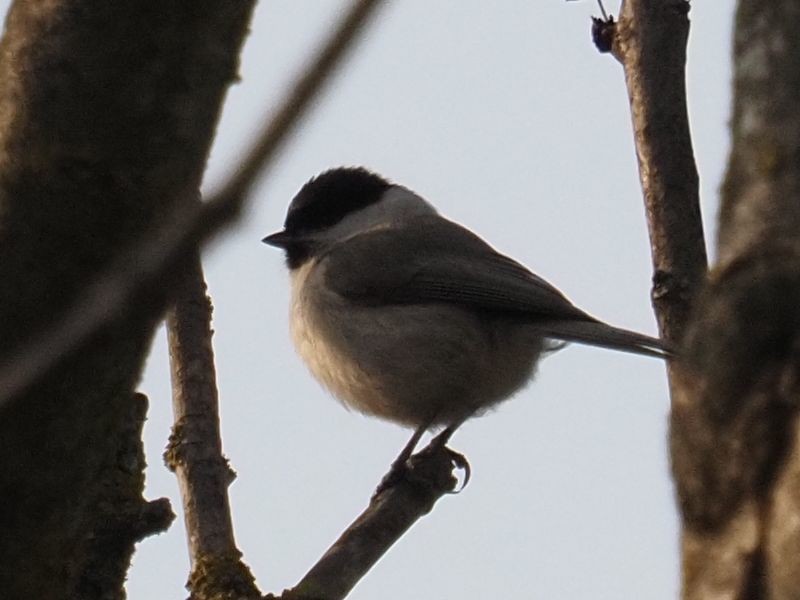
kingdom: Animalia
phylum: Chordata
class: Aves
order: Passeriformes
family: Paridae
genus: Poecile
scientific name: Poecile palustris
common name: Marsh tit
